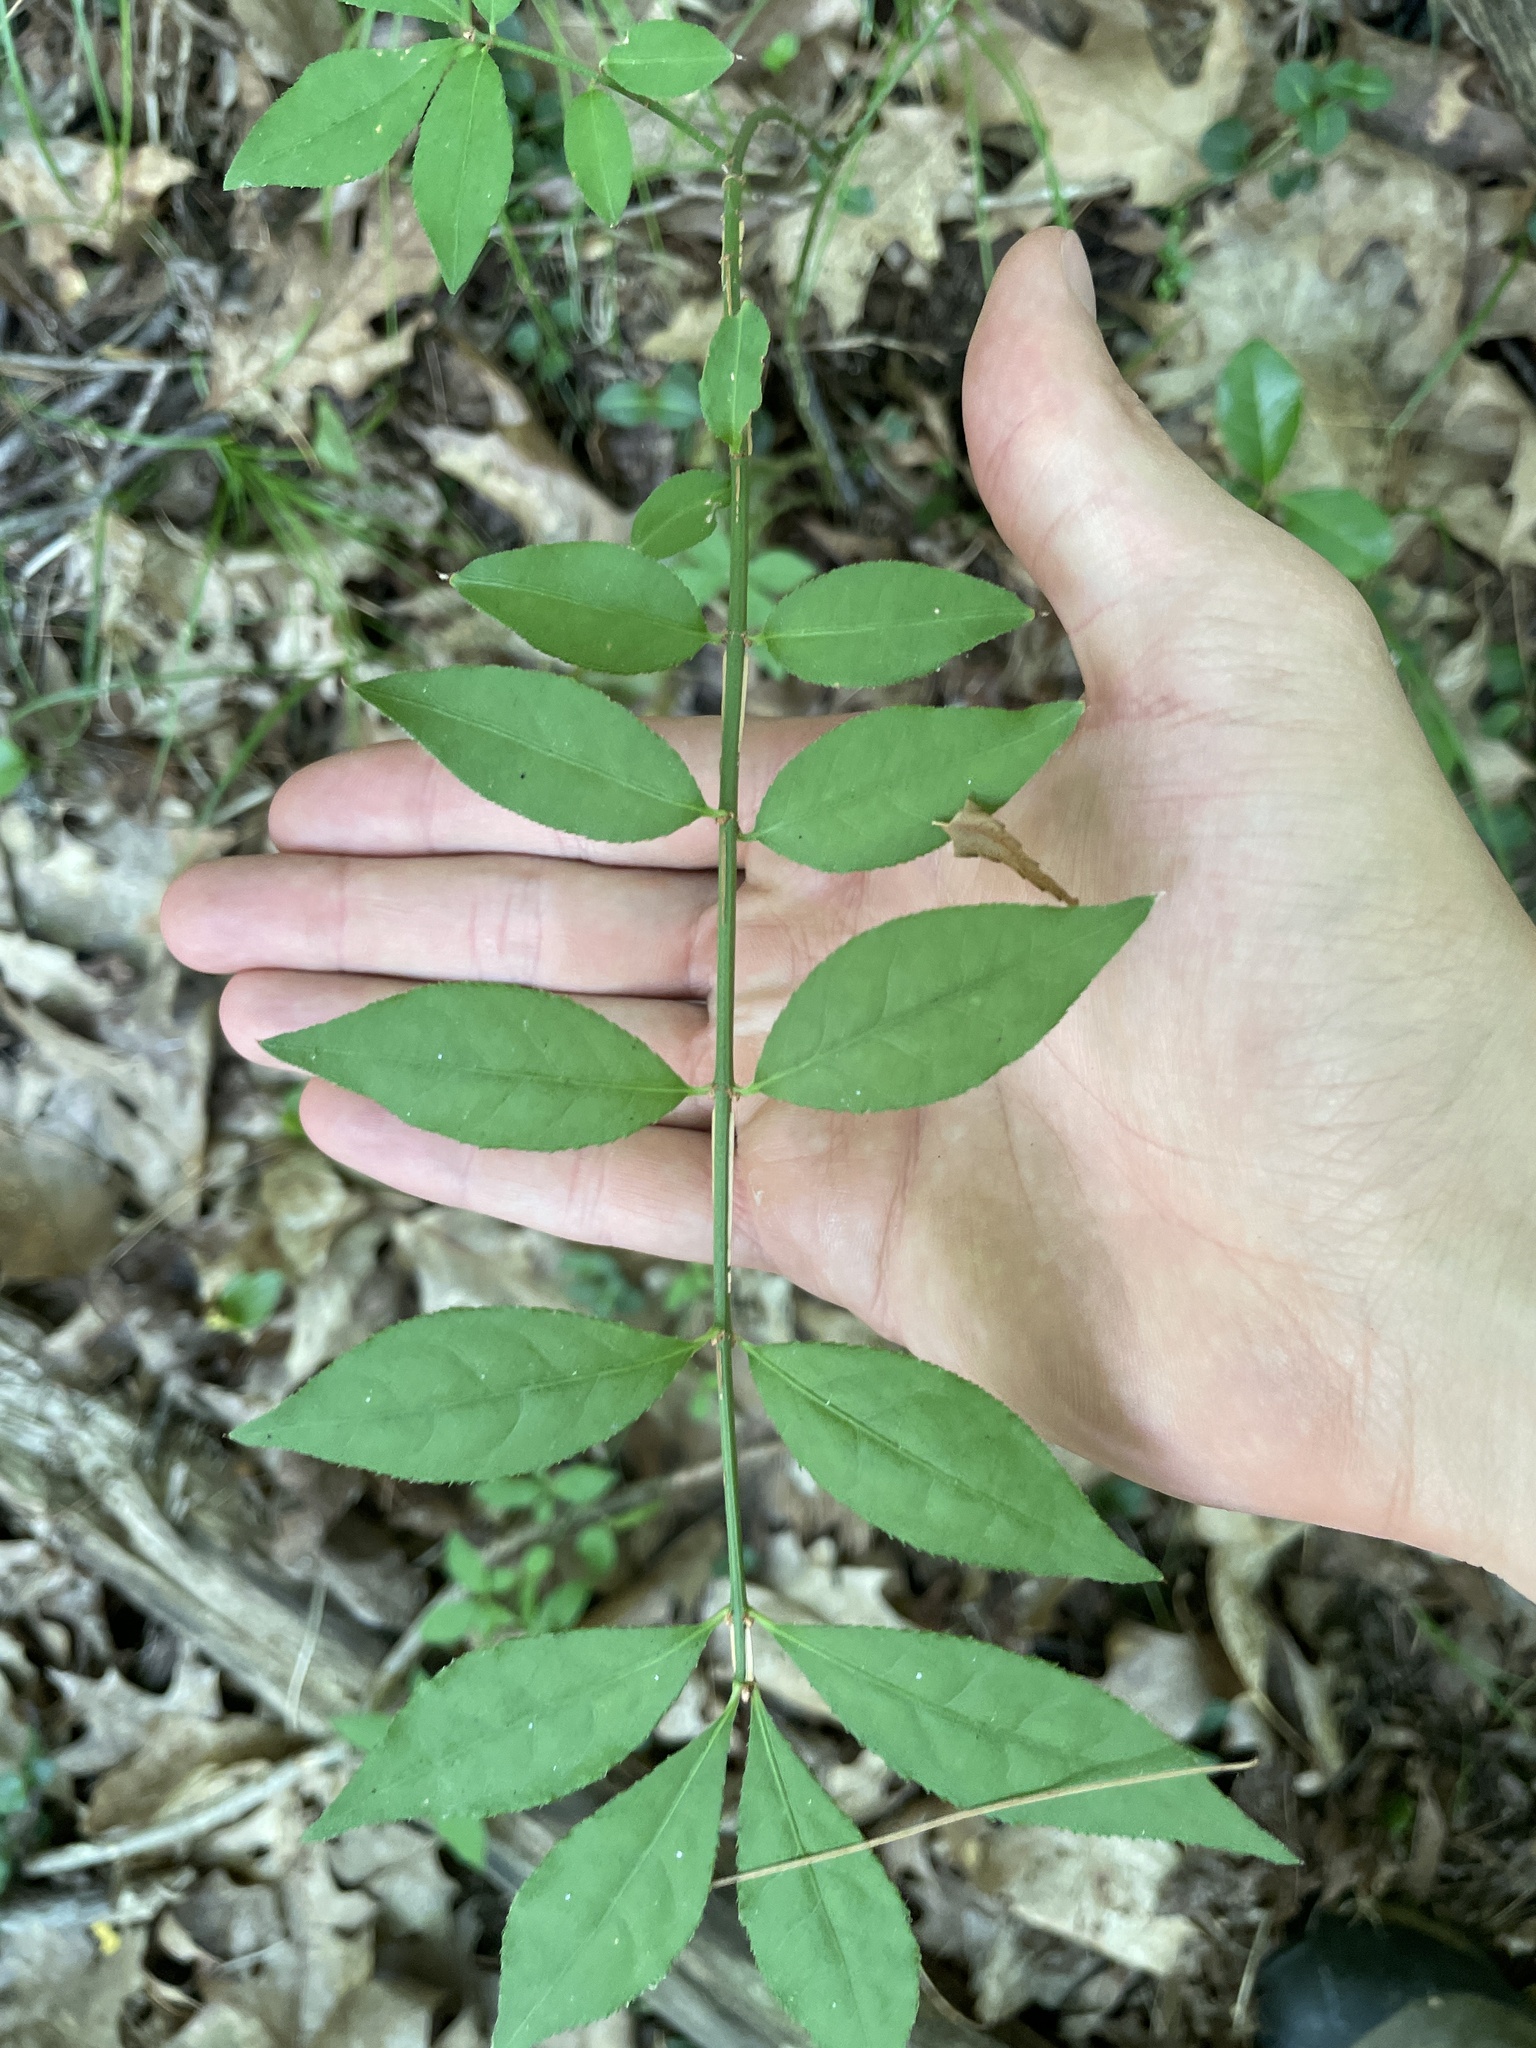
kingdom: Plantae
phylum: Tracheophyta
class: Magnoliopsida
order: Celastrales
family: Celastraceae
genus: Euonymus
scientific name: Euonymus alatus
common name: Winged euonymus
